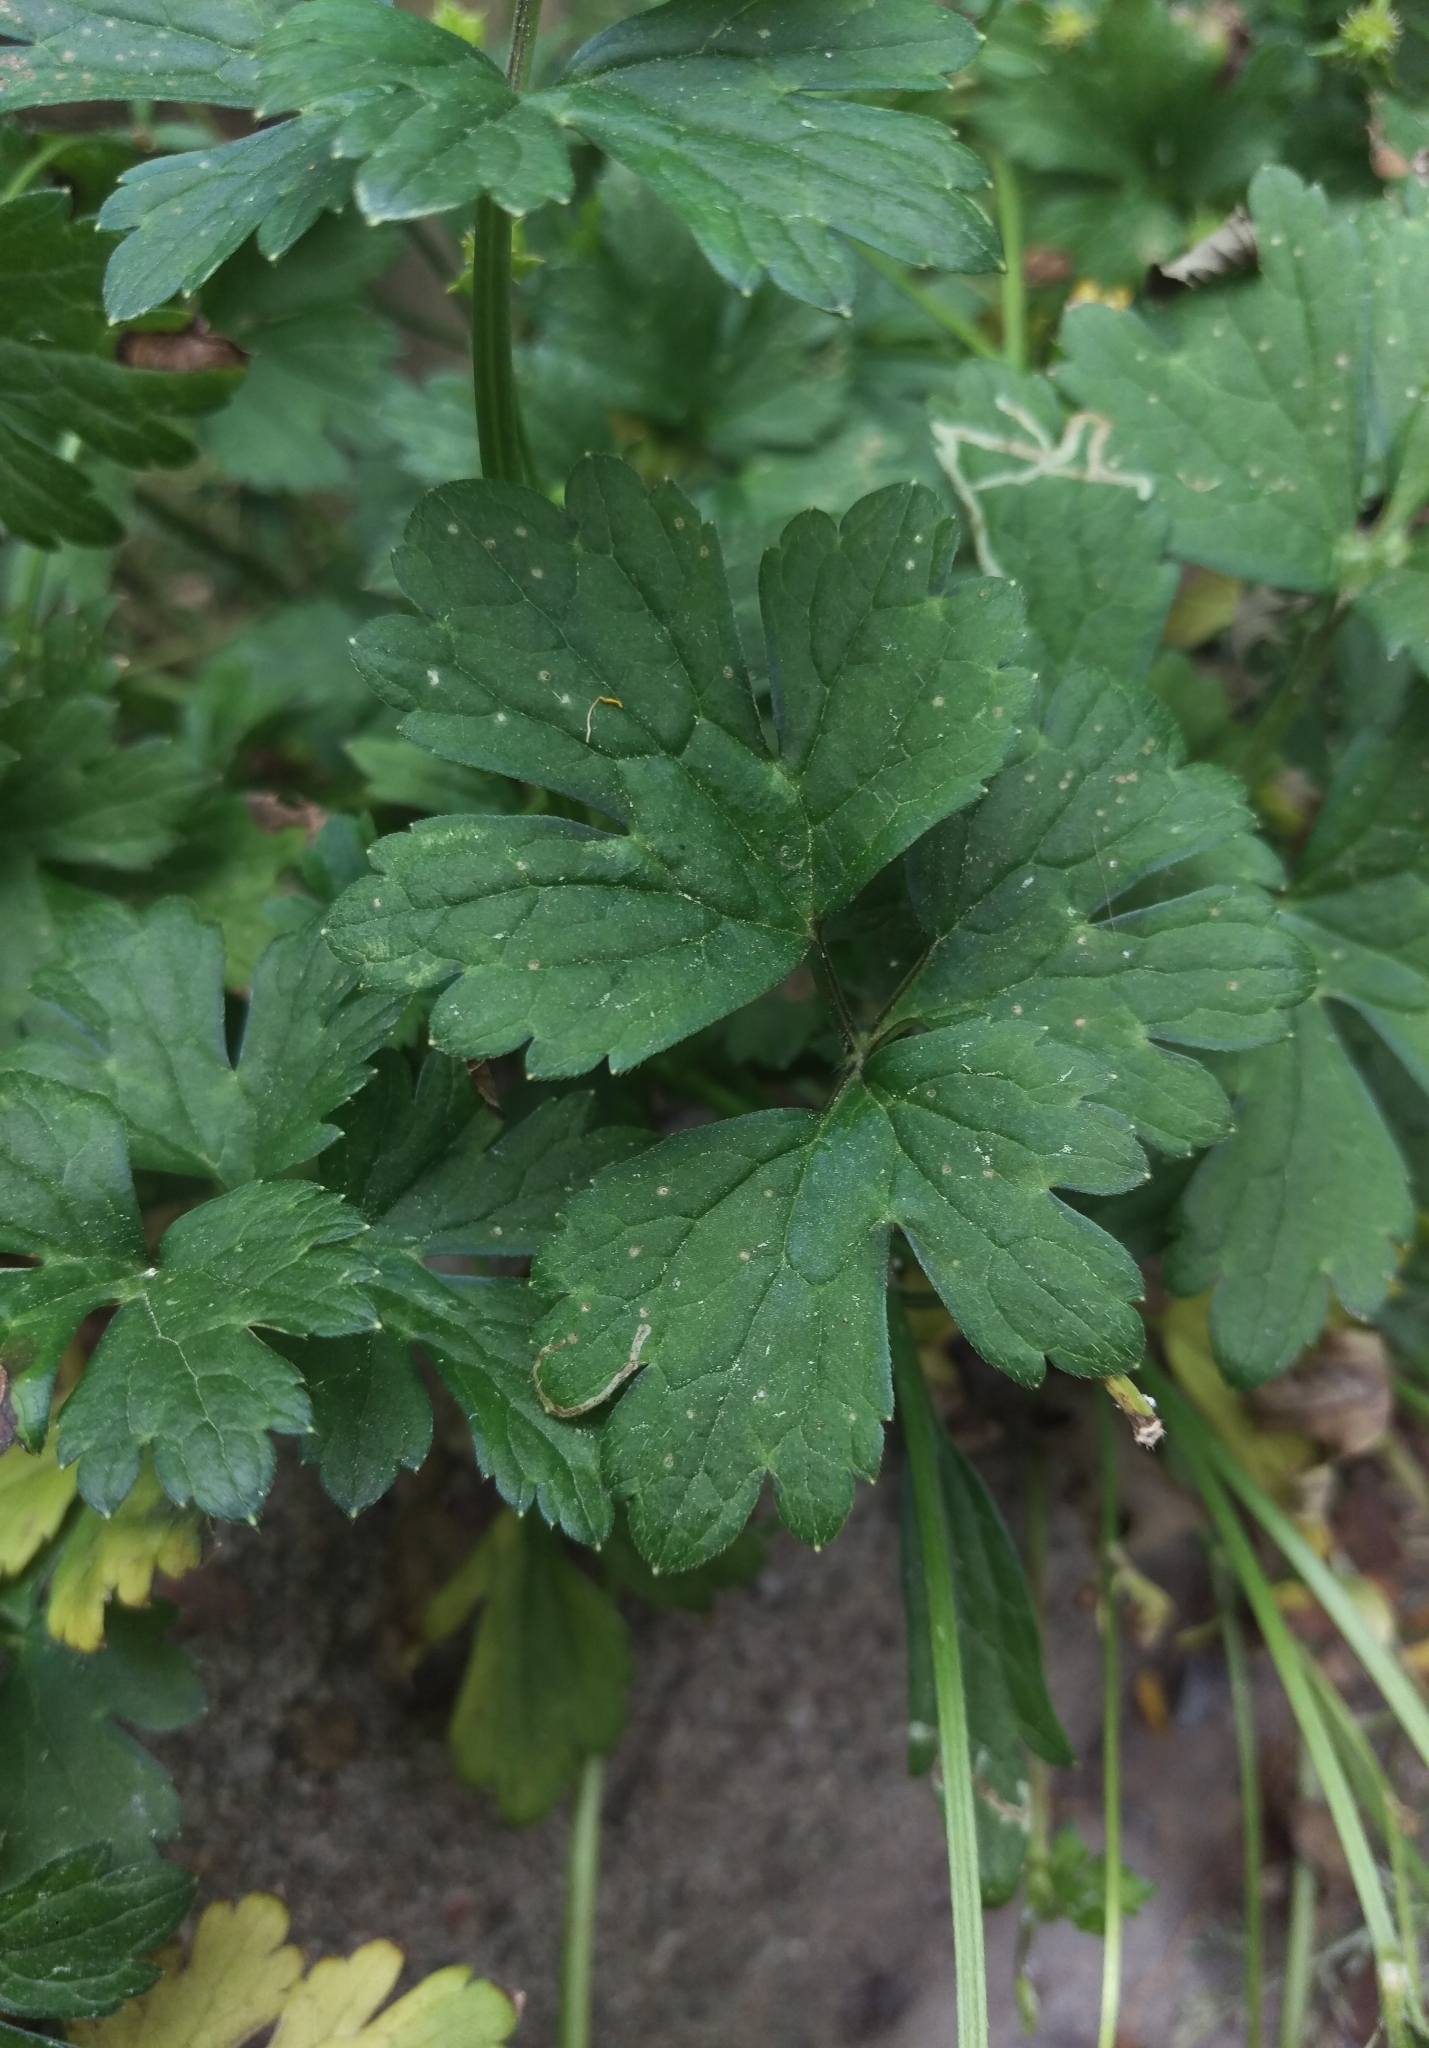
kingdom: Plantae
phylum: Tracheophyta
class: Magnoliopsida
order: Ranunculales
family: Ranunculaceae
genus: Ranunculus
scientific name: Ranunculus repens
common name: Creeping buttercup
